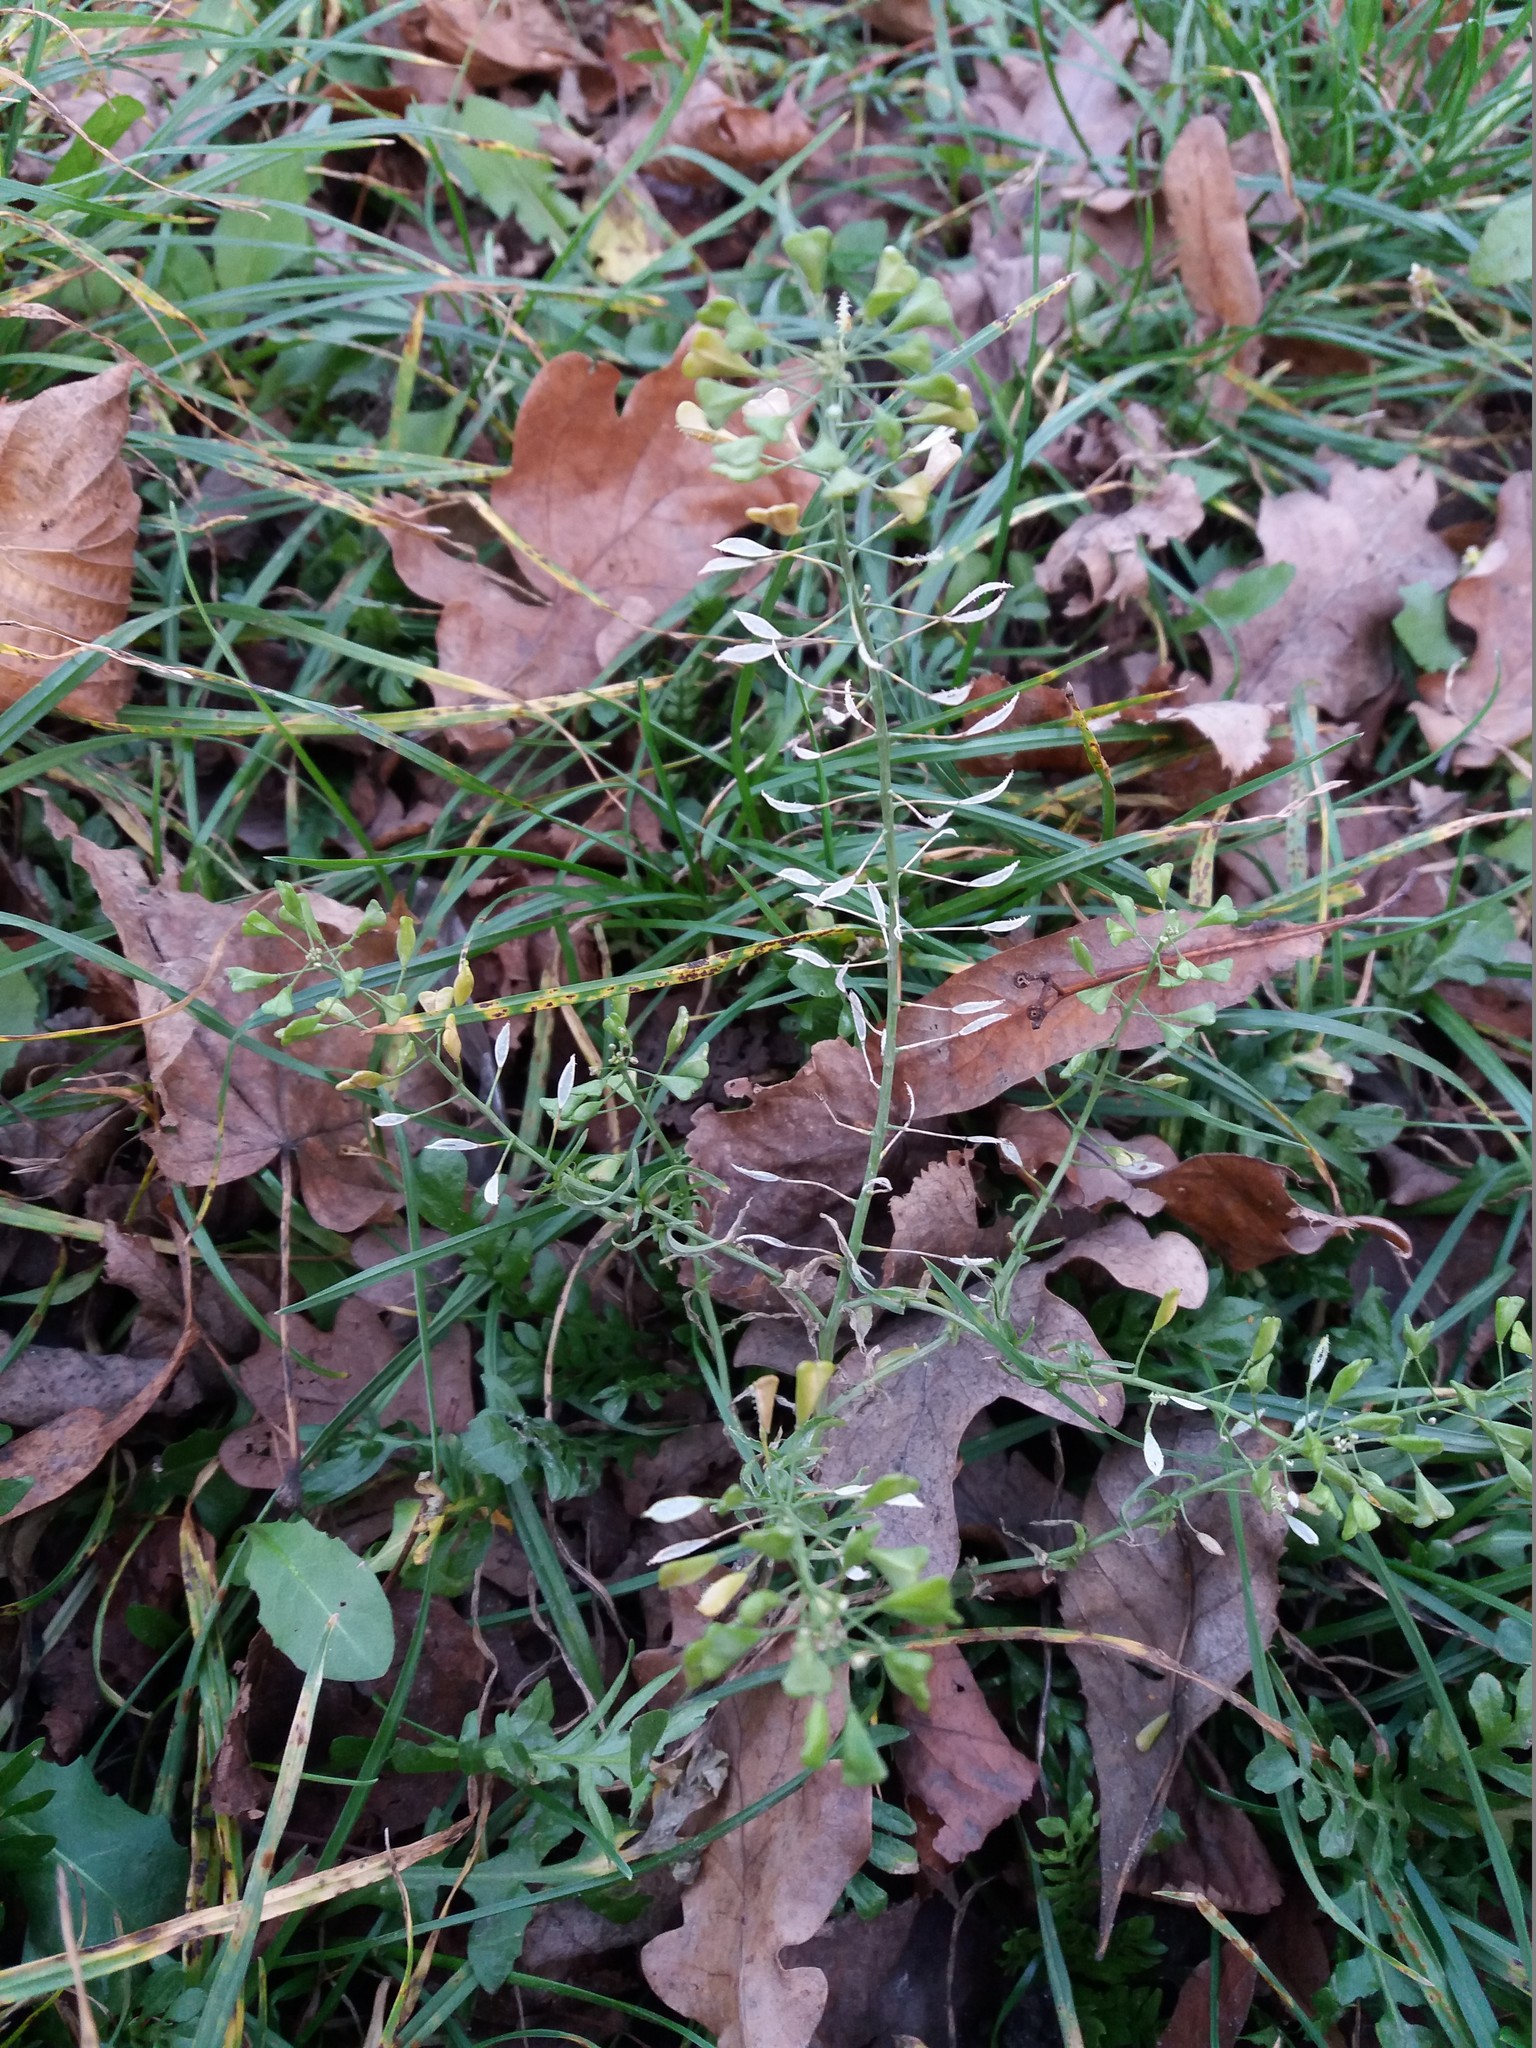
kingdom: Plantae
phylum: Tracheophyta
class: Magnoliopsida
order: Brassicales
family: Brassicaceae
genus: Capsella
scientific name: Capsella bursa-pastoris
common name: Shepherd's purse
